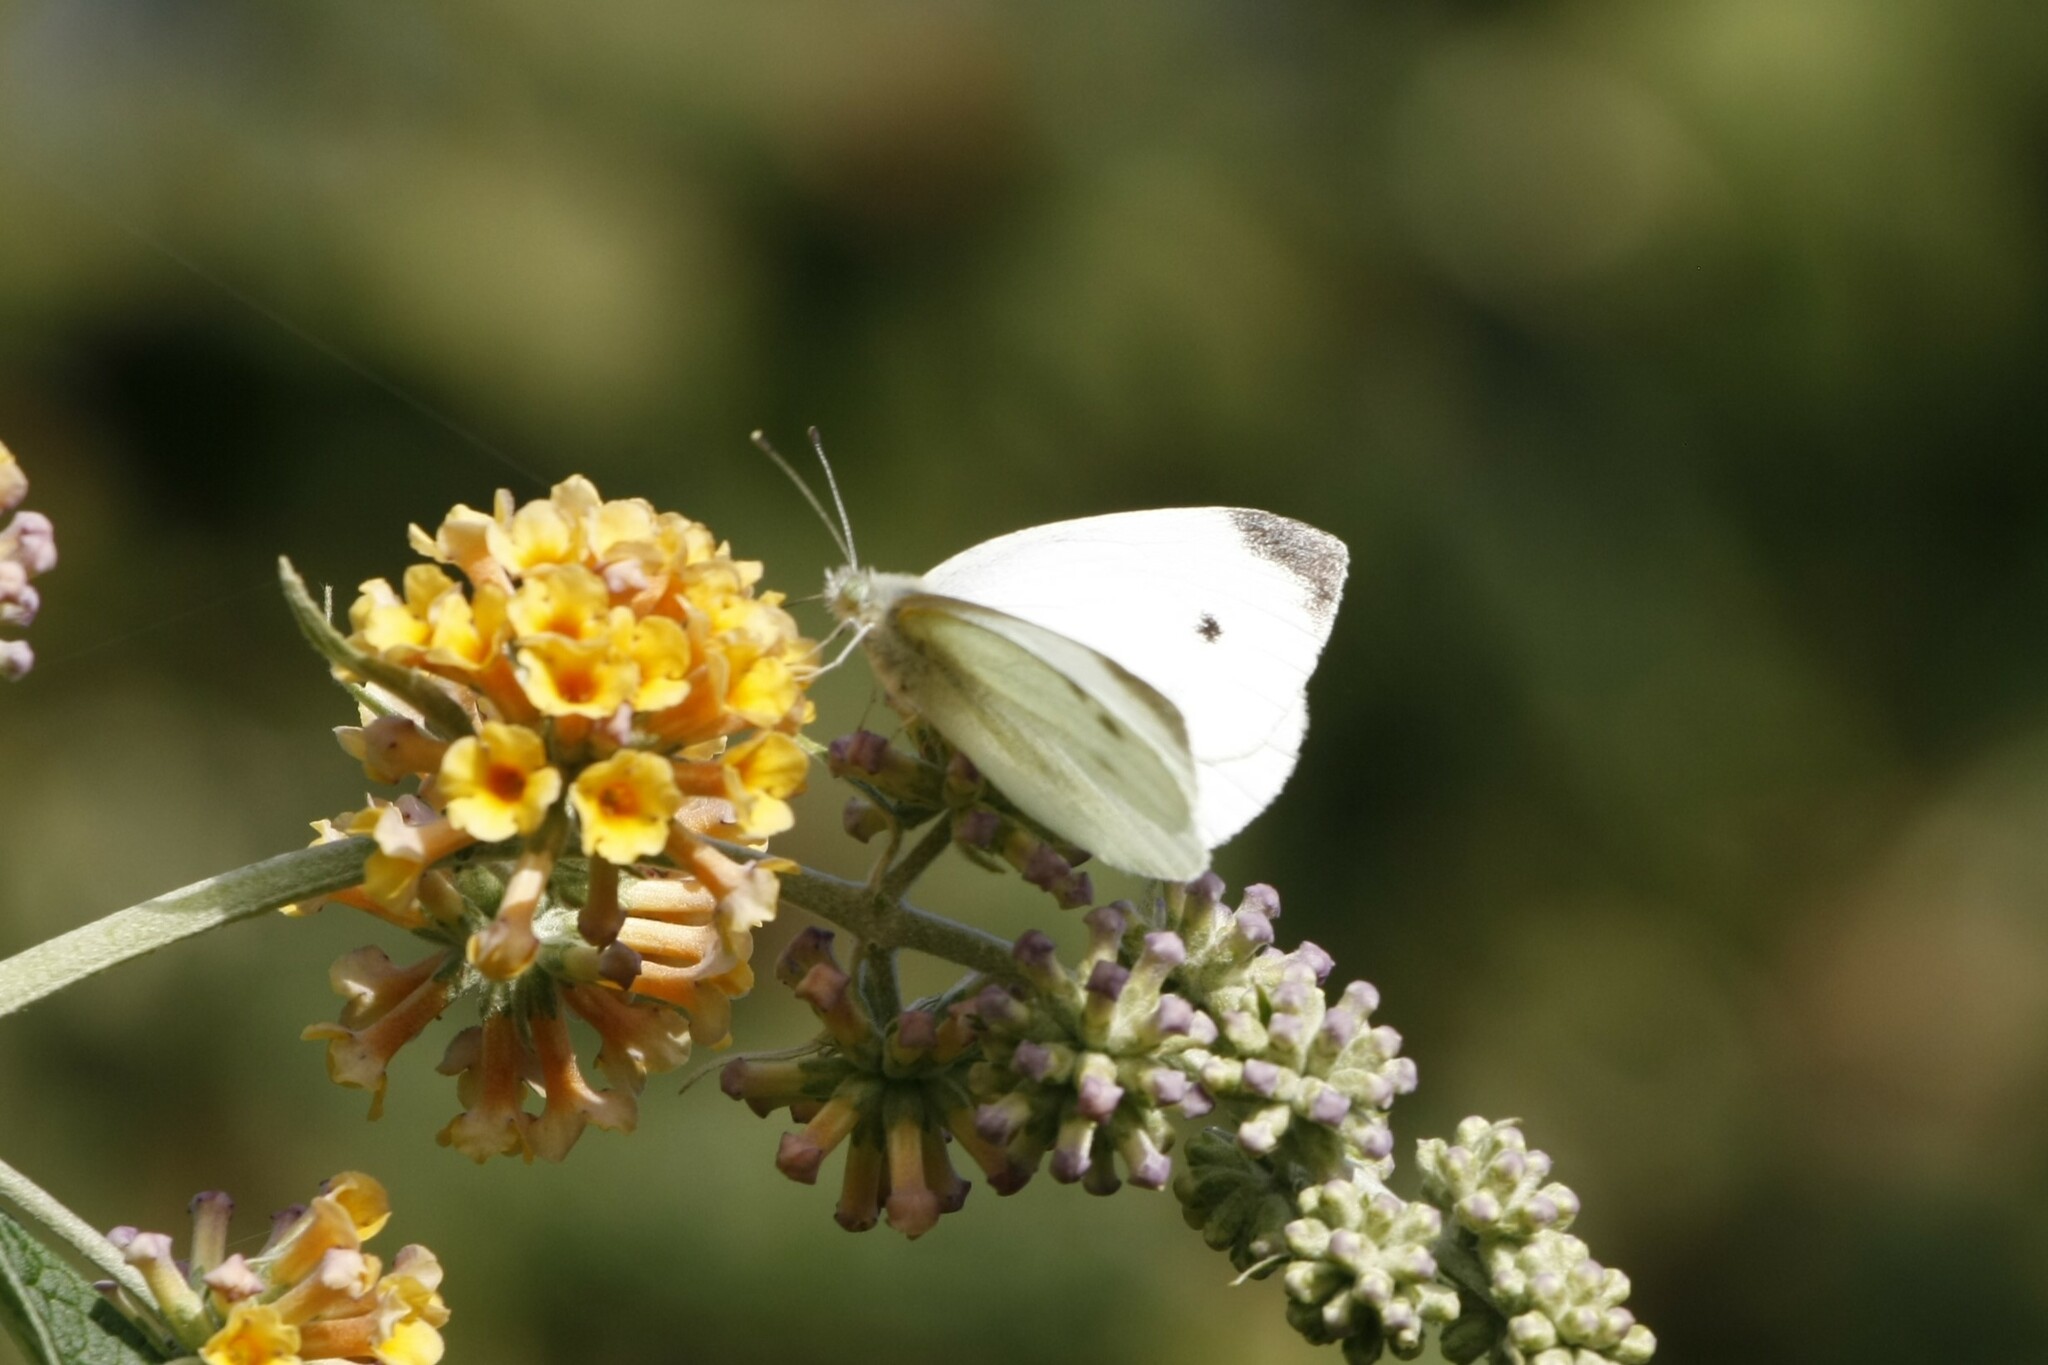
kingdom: Animalia
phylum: Arthropoda
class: Insecta
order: Lepidoptera
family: Pieridae
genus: Pieris
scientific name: Pieris rapae
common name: Small white
